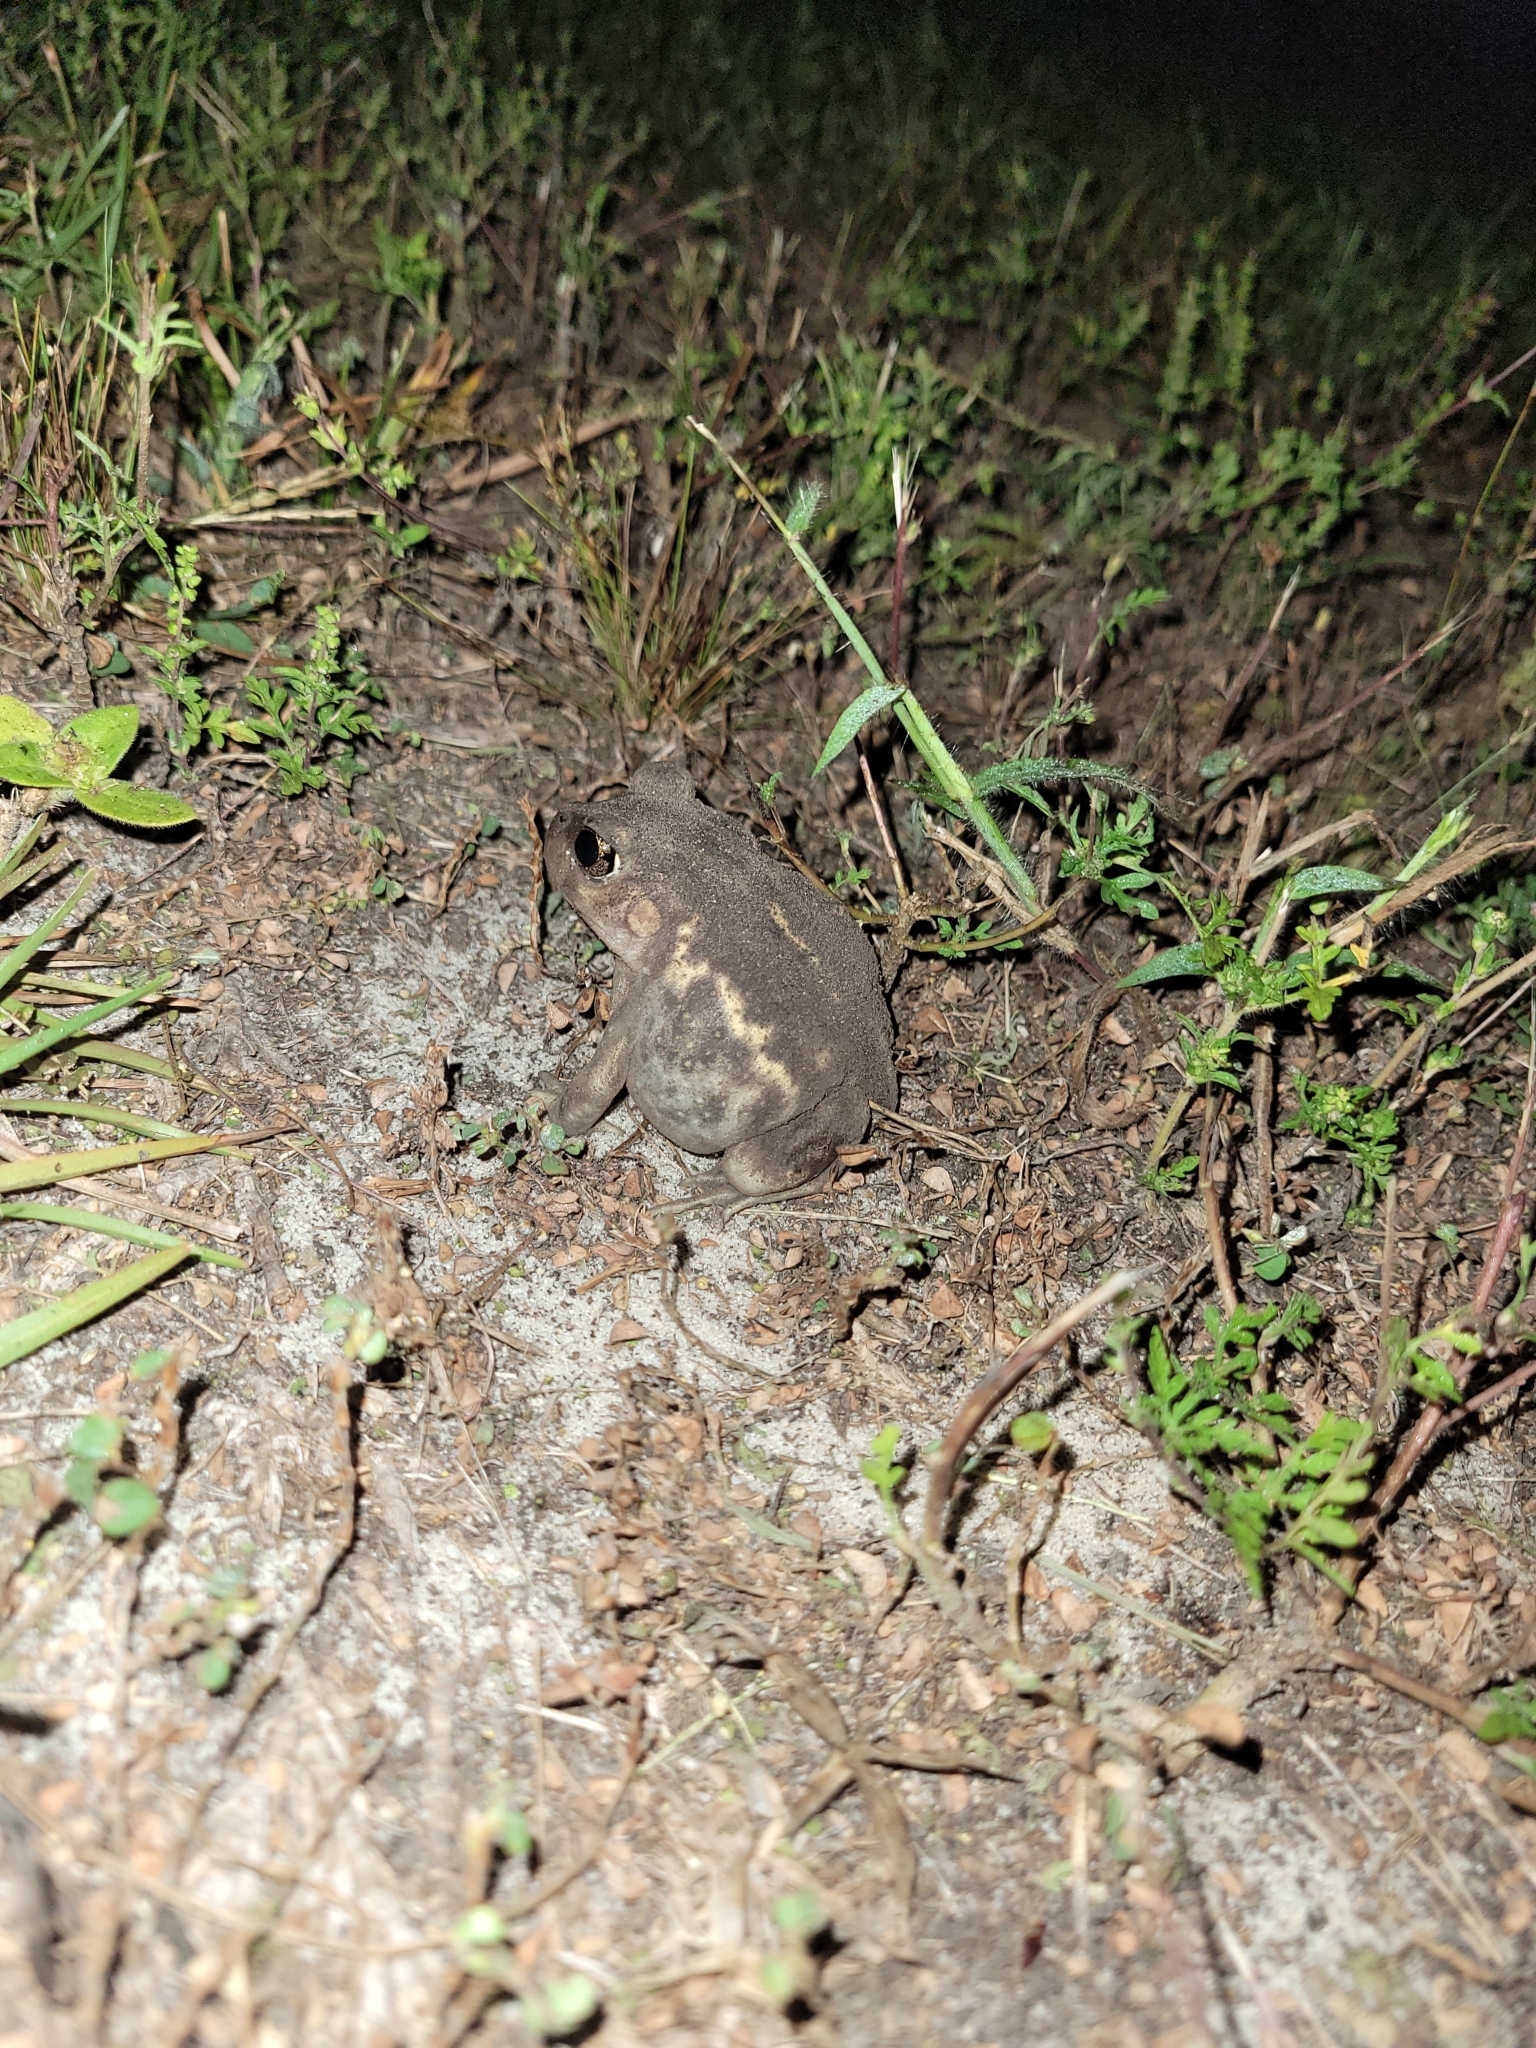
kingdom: Animalia
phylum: Chordata
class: Amphibia
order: Anura
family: Scaphiopodidae
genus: Scaphiopus
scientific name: Scaphiopus holbrookii
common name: Eastern spadefoot toad
